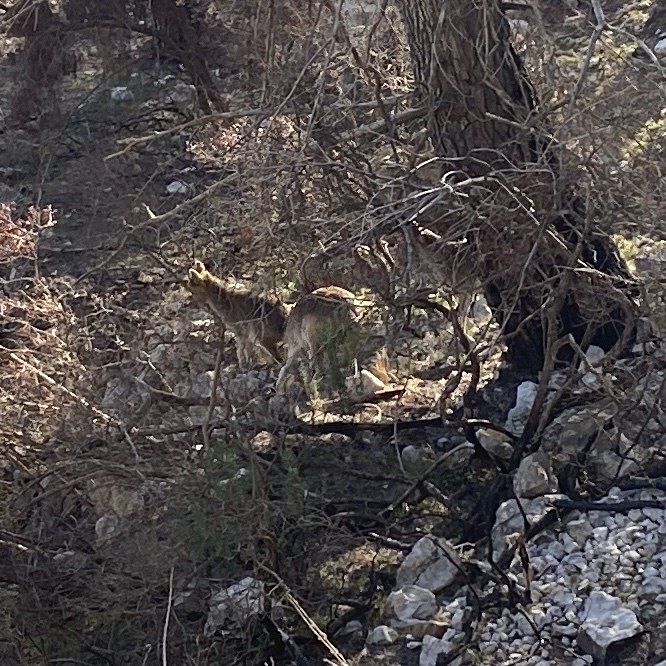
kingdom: Animalia
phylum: Chordata
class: Mammalia
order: Artiodactyla
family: Bovidae
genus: Capra
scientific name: Capra pyrenaica
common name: Spanish ibex
